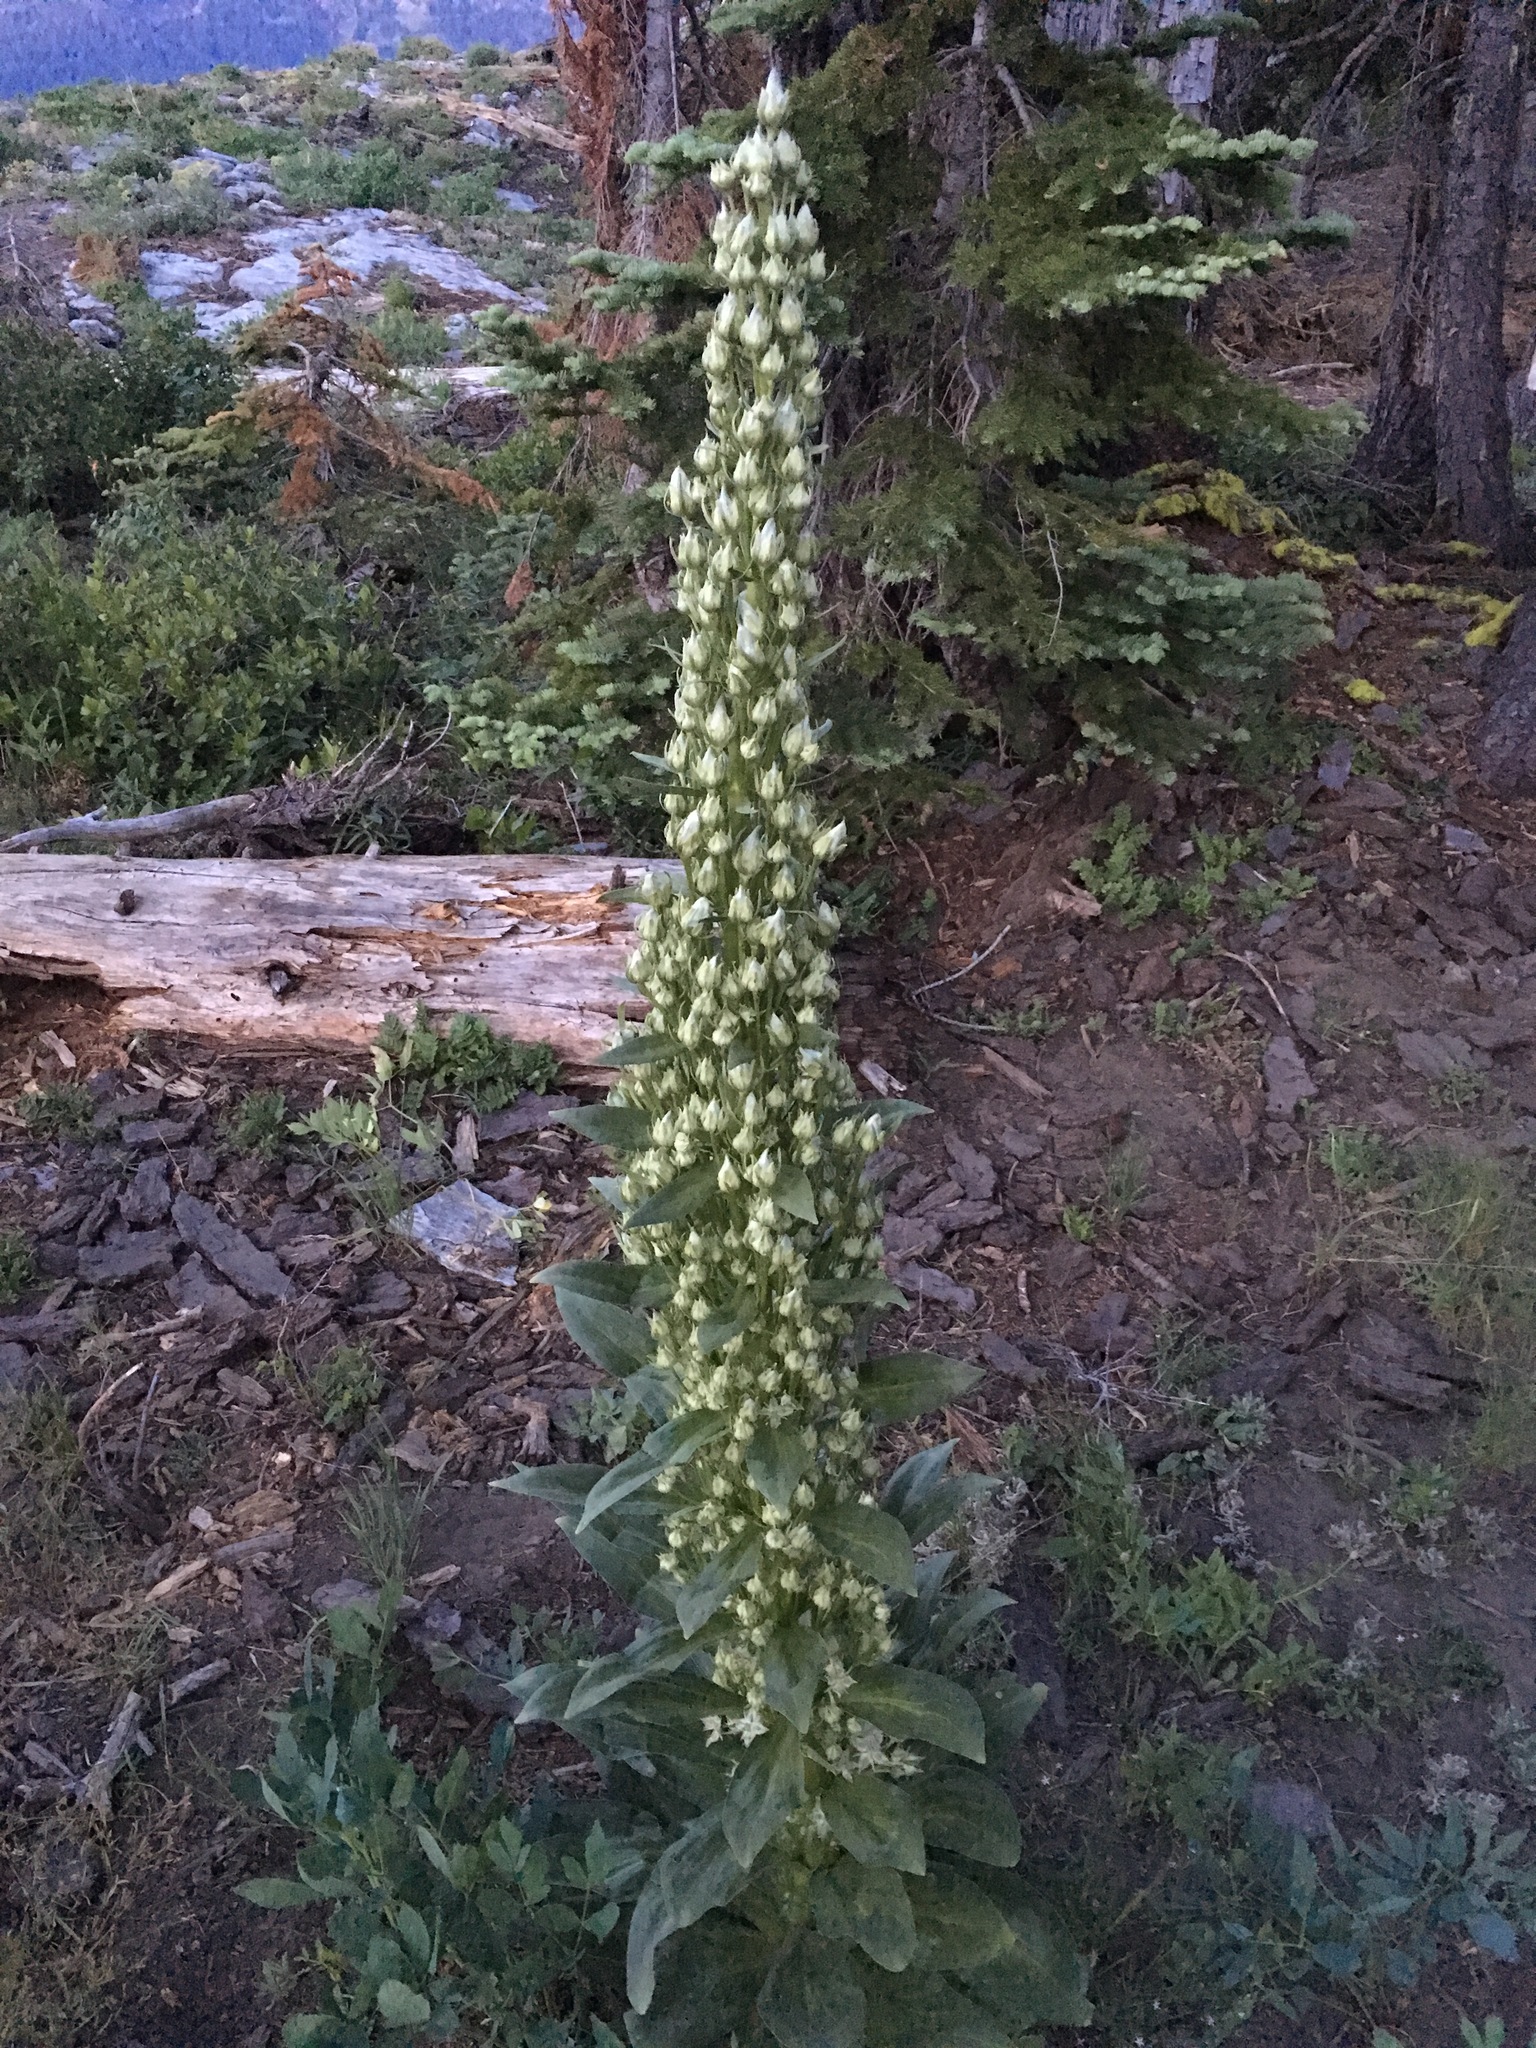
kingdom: Plantae
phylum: Tracheophyta
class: Magnoliopsida
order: Gentianales
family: Gentianaceae
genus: Frasera
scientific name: Frasera speciosa
